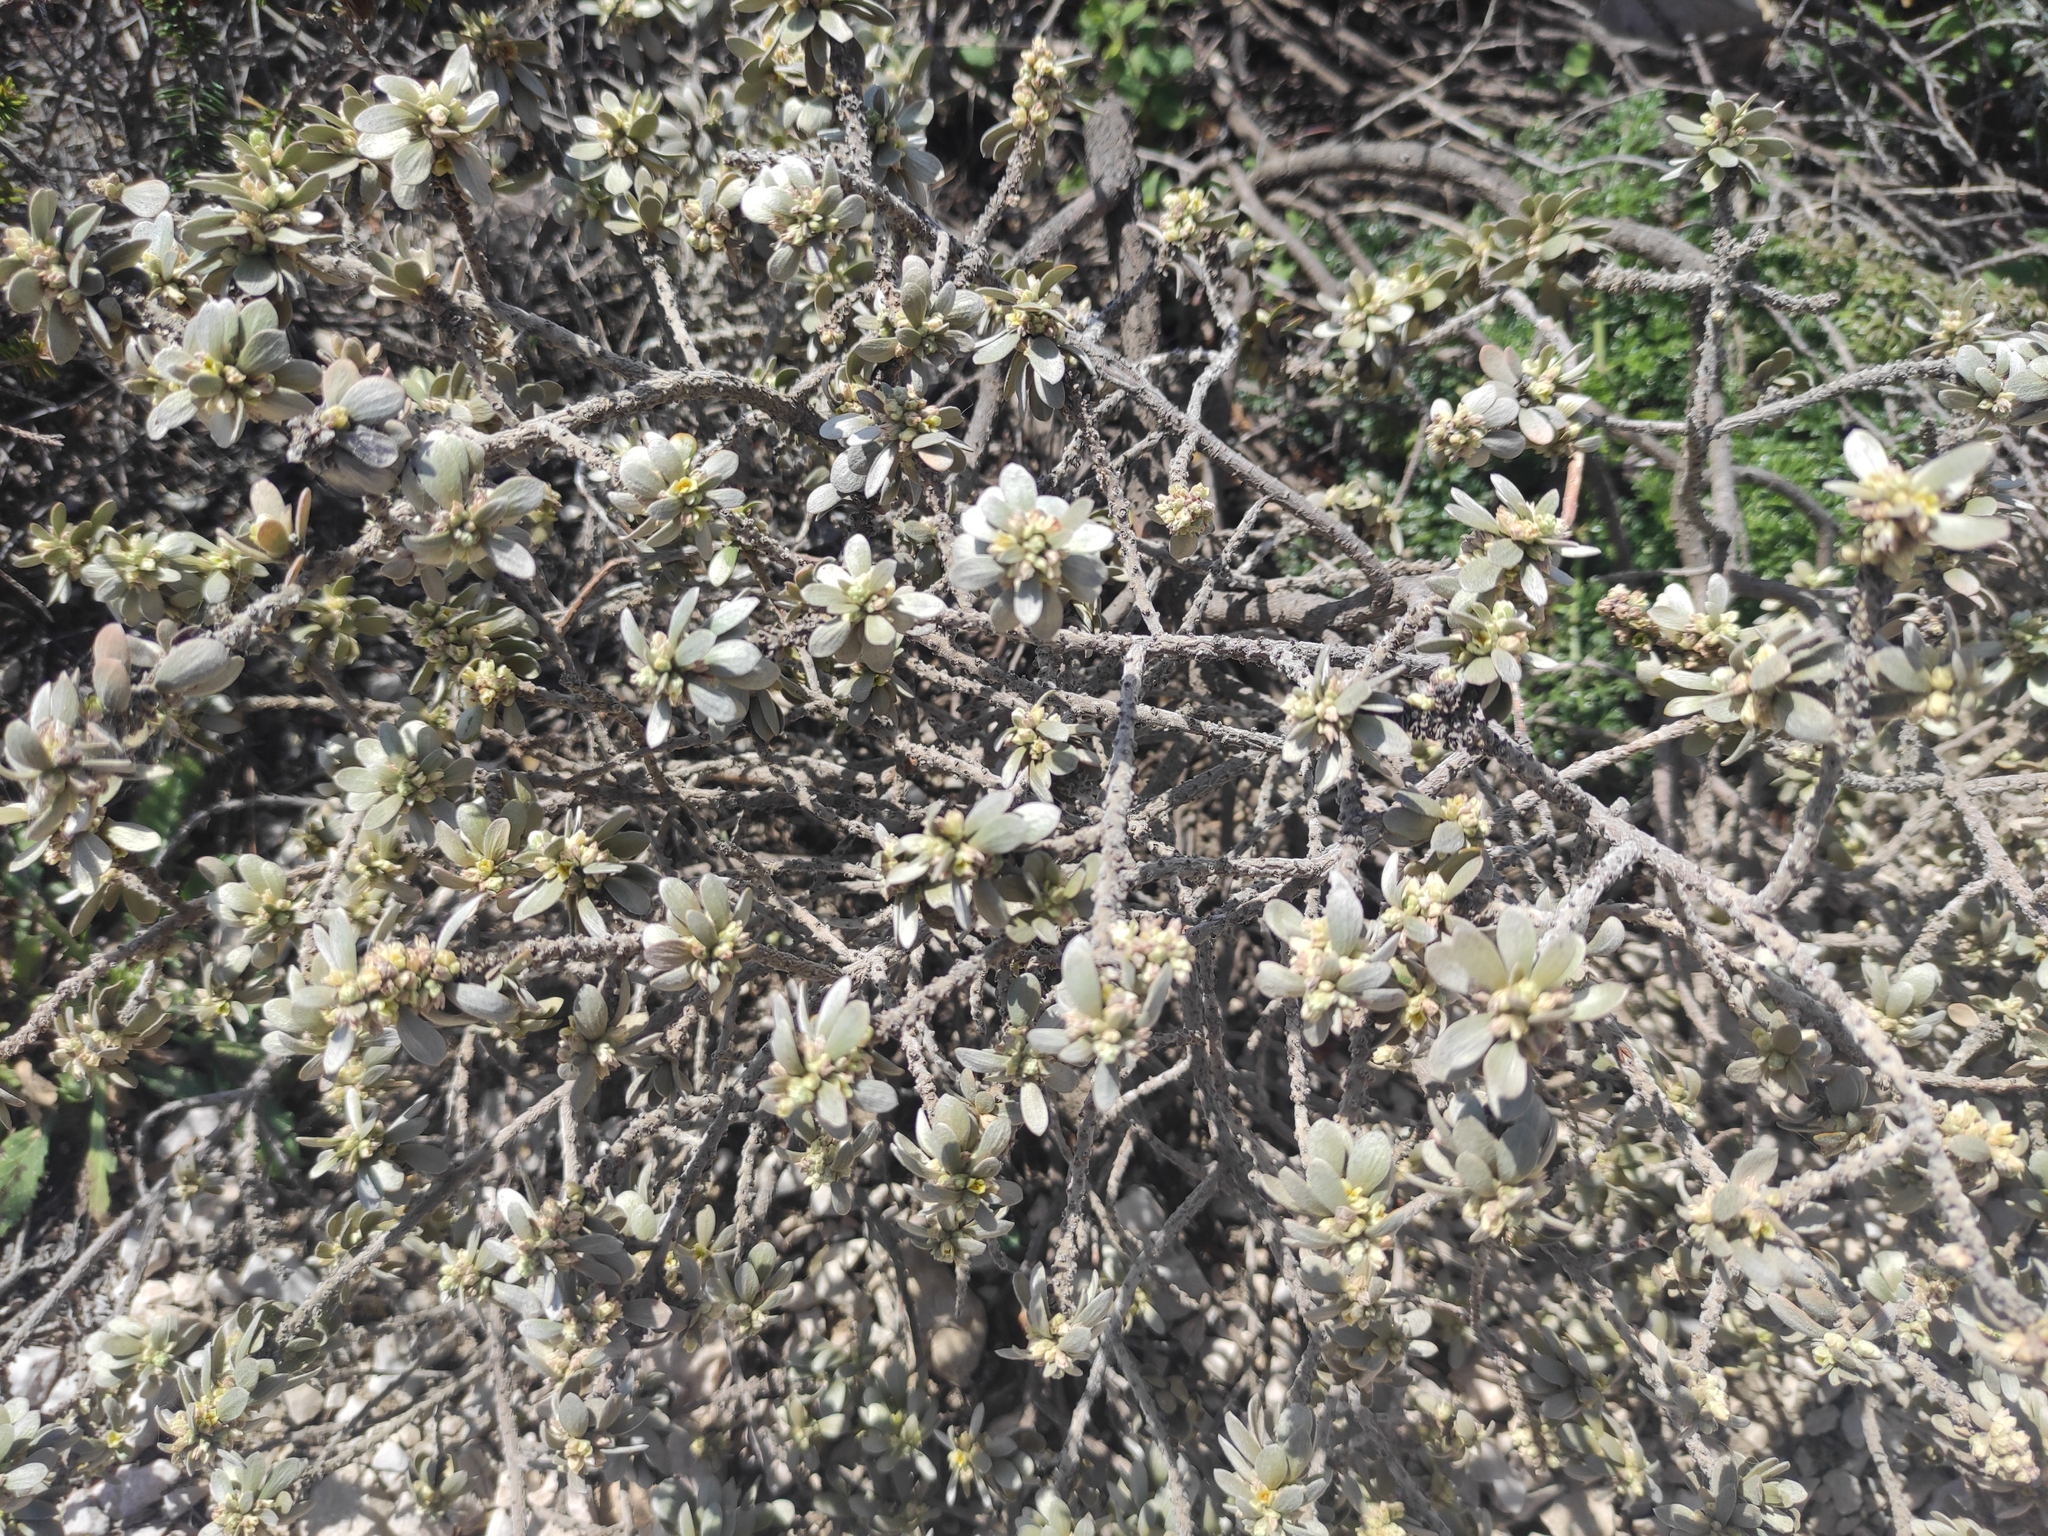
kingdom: Plantae
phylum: Tracheophyta
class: Magnoliopsida
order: Malvales
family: Thymelaeaceae
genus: Thymelaea
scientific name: Thymelaea tartonraira
